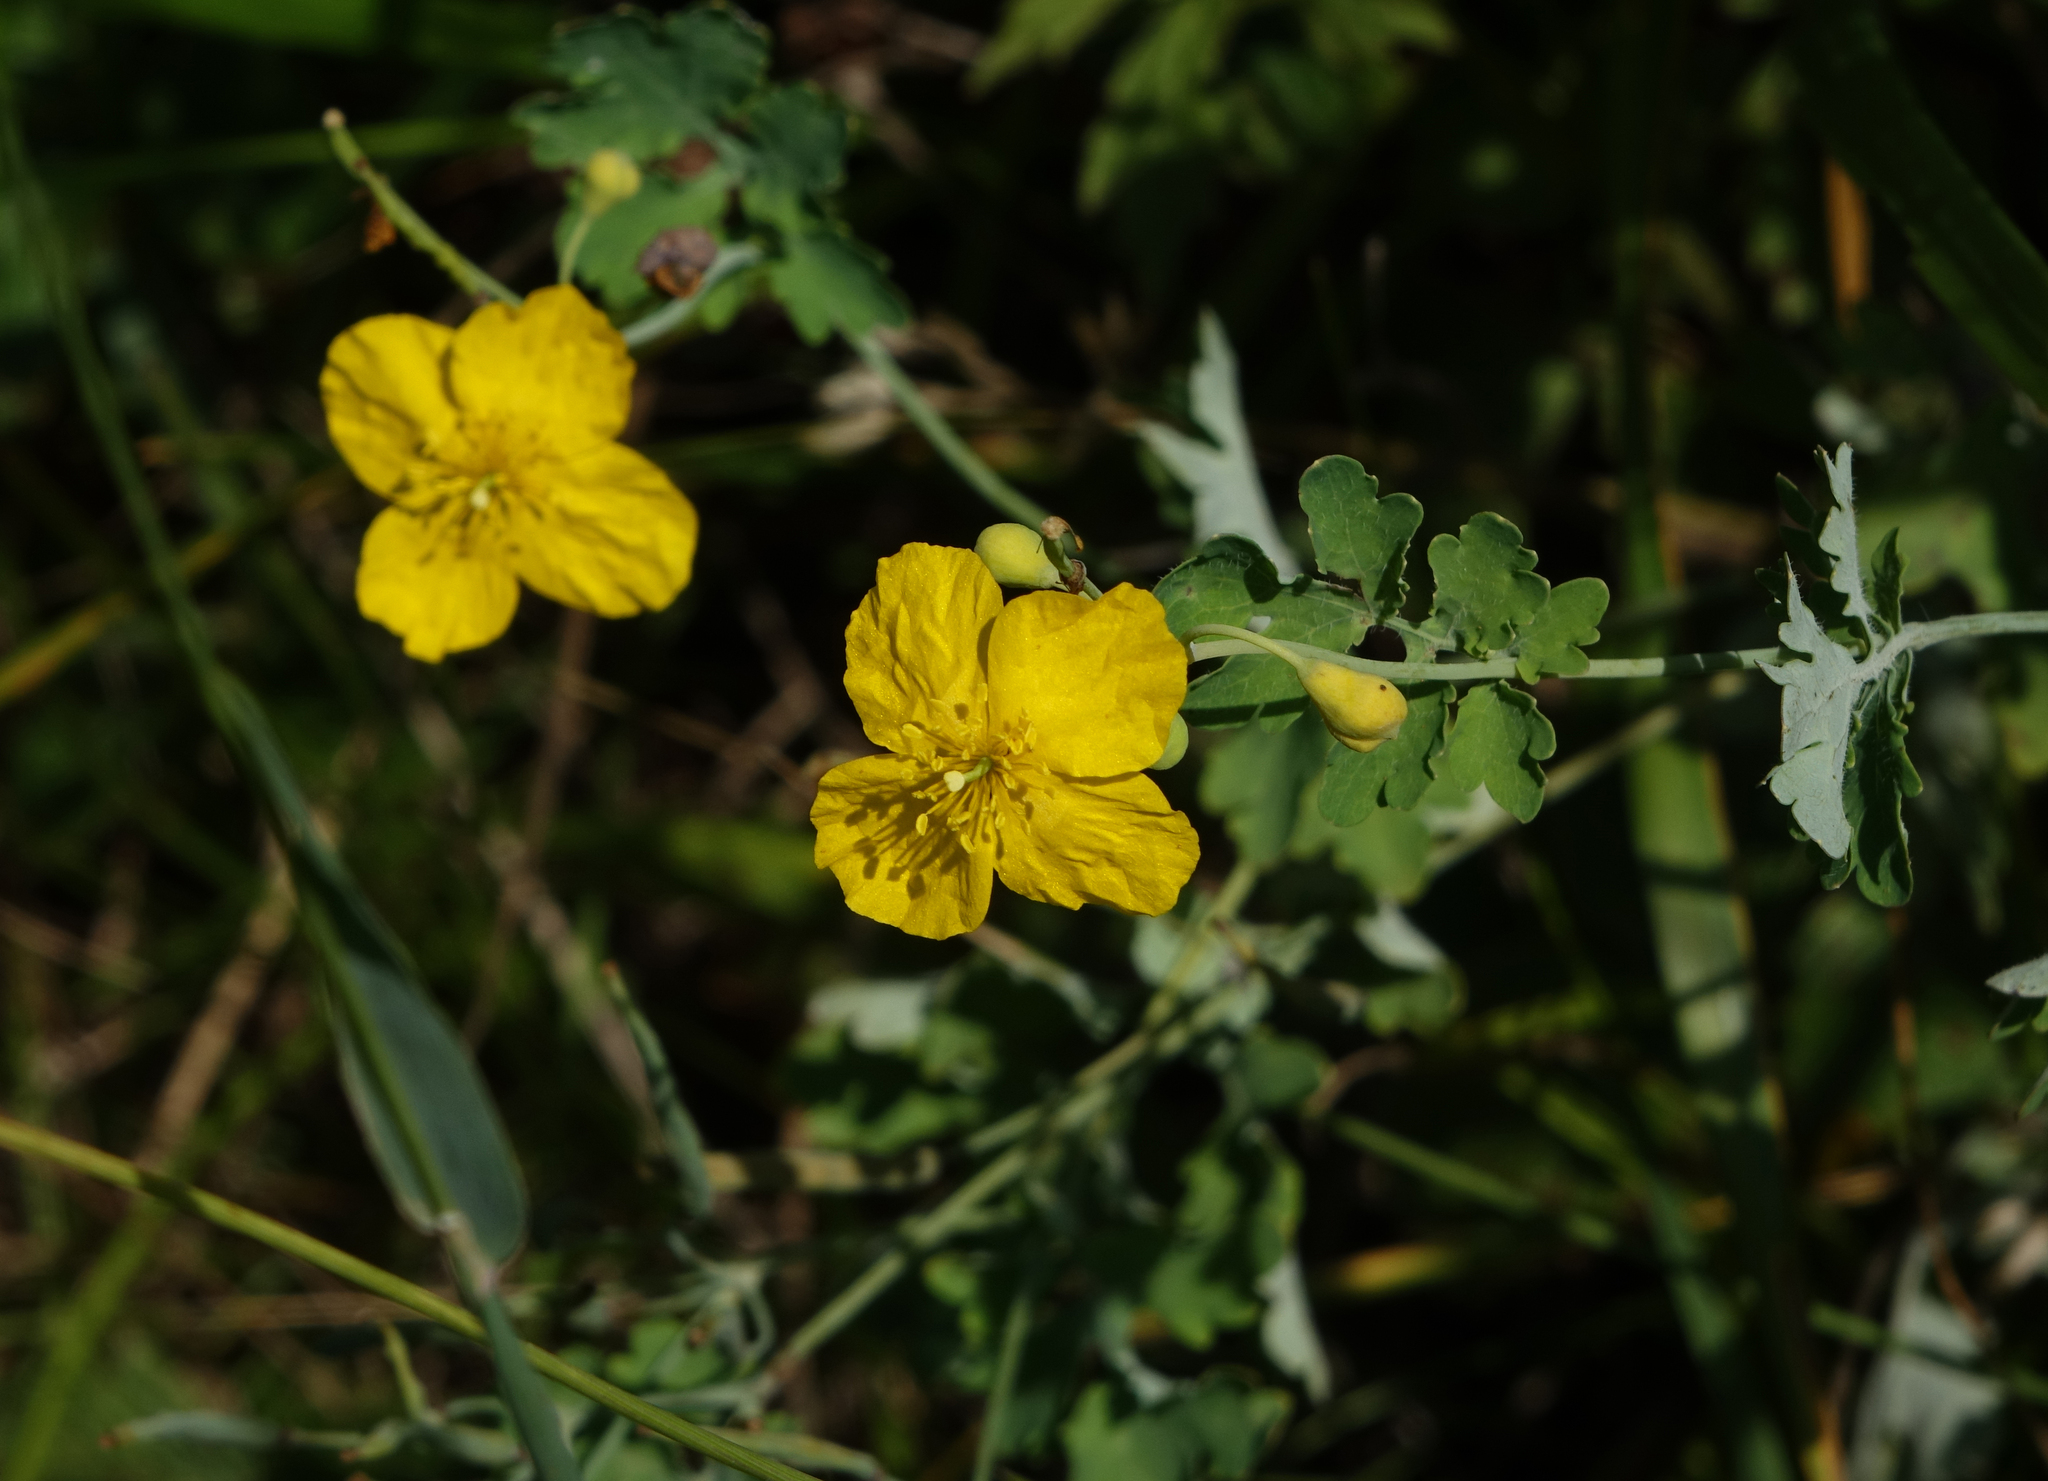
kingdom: Plantae
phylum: Tracheophyta
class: Magnoliopsida
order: Ranunculales
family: Papaveraceae
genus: Chelidonium
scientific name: Chelidonium majus
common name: Greater celandine
